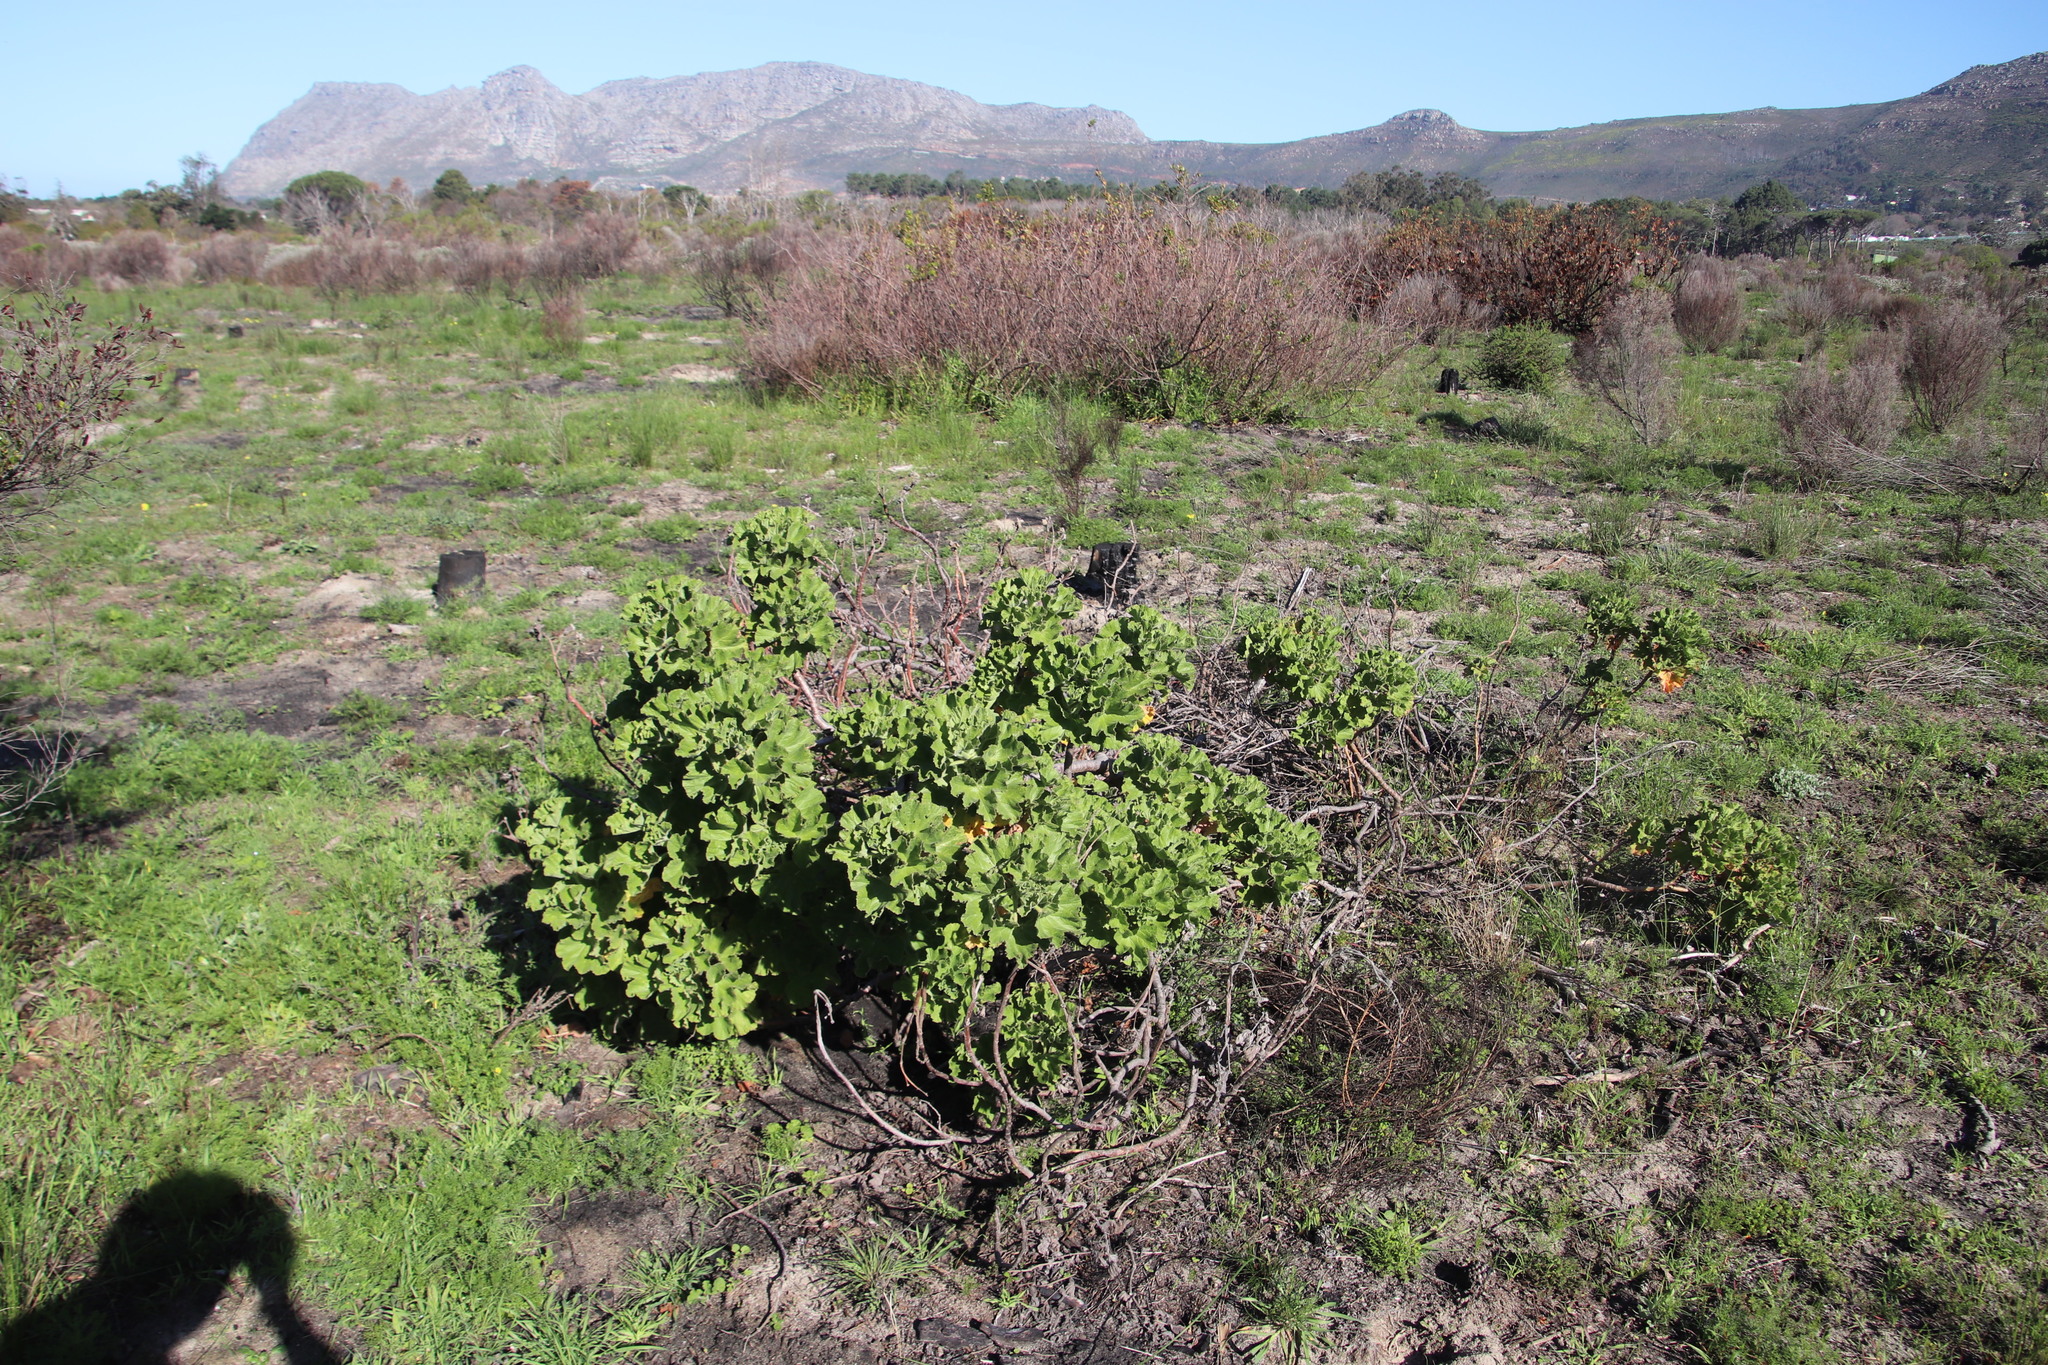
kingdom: Plantae
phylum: Tracheophyta
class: Magnoliopsida
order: Geraniales
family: Geraniaceae
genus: Pelargonium
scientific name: Pelargonium cucullatum
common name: Tree pelargonium
